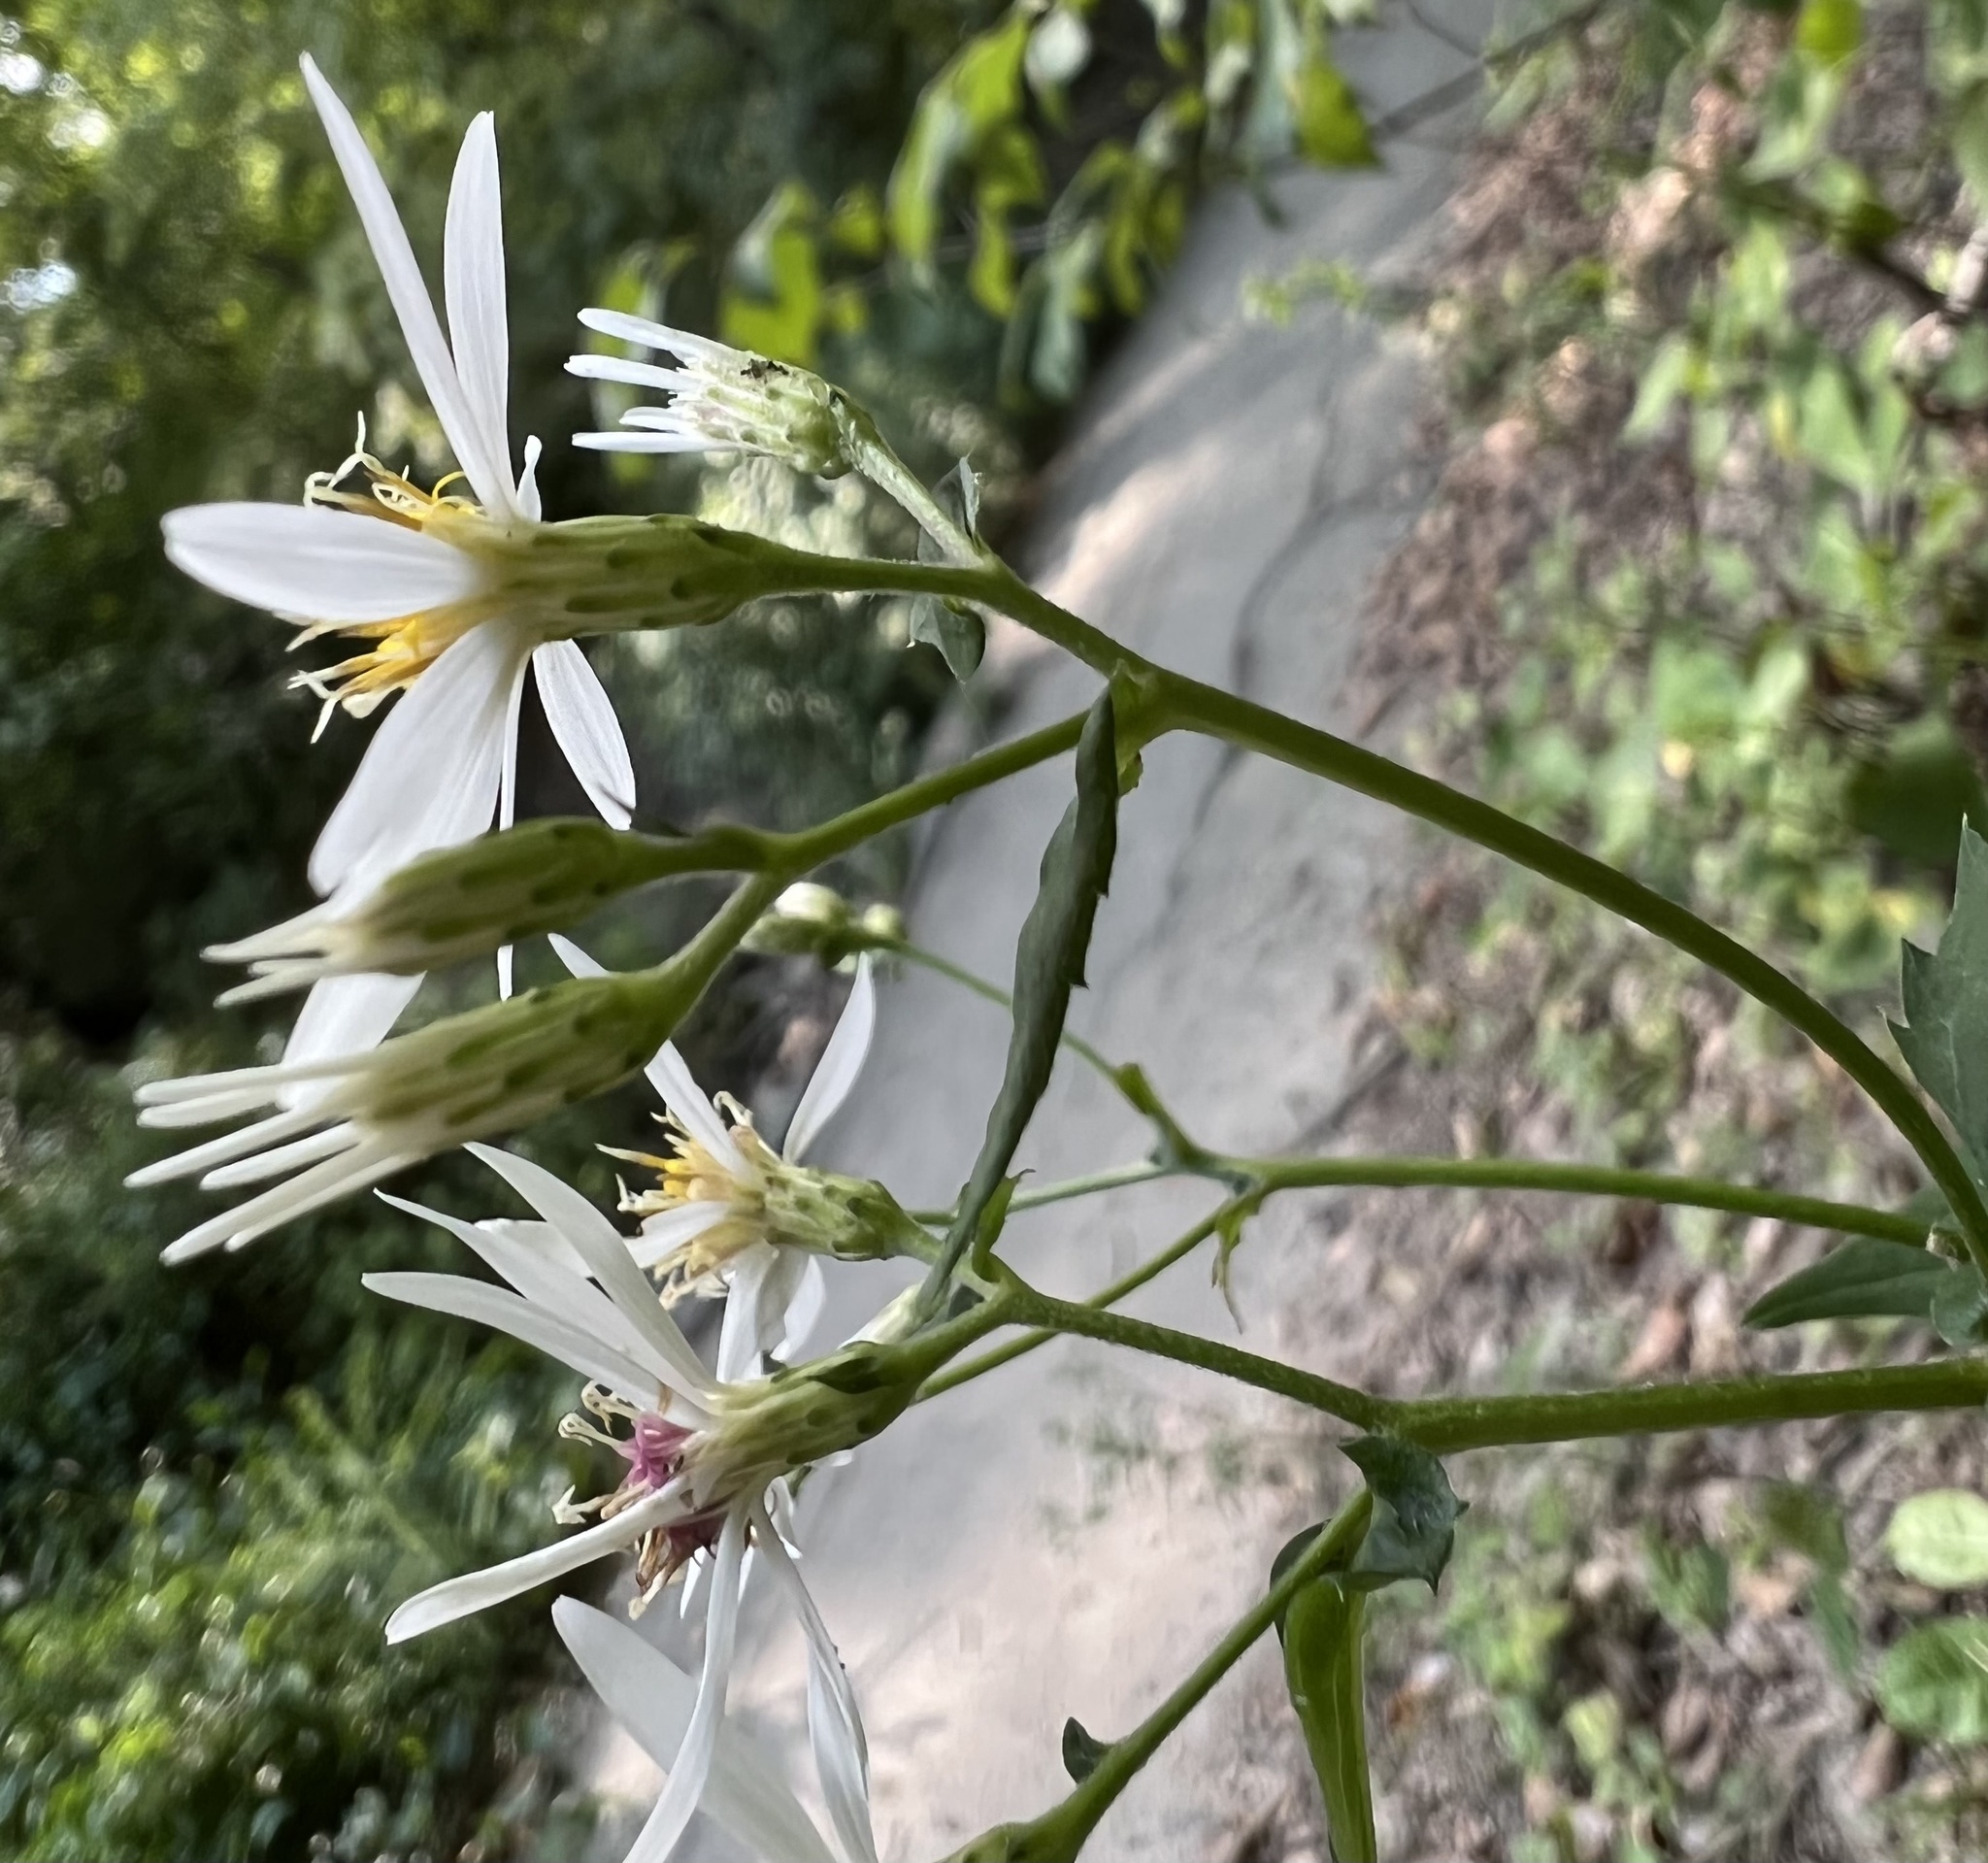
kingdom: Plantae
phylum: Tracheophyta
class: Magnoliopsida
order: Asterales
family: Asteraceae
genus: Eurybia
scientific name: Eurybia divaricata
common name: White wood aster
